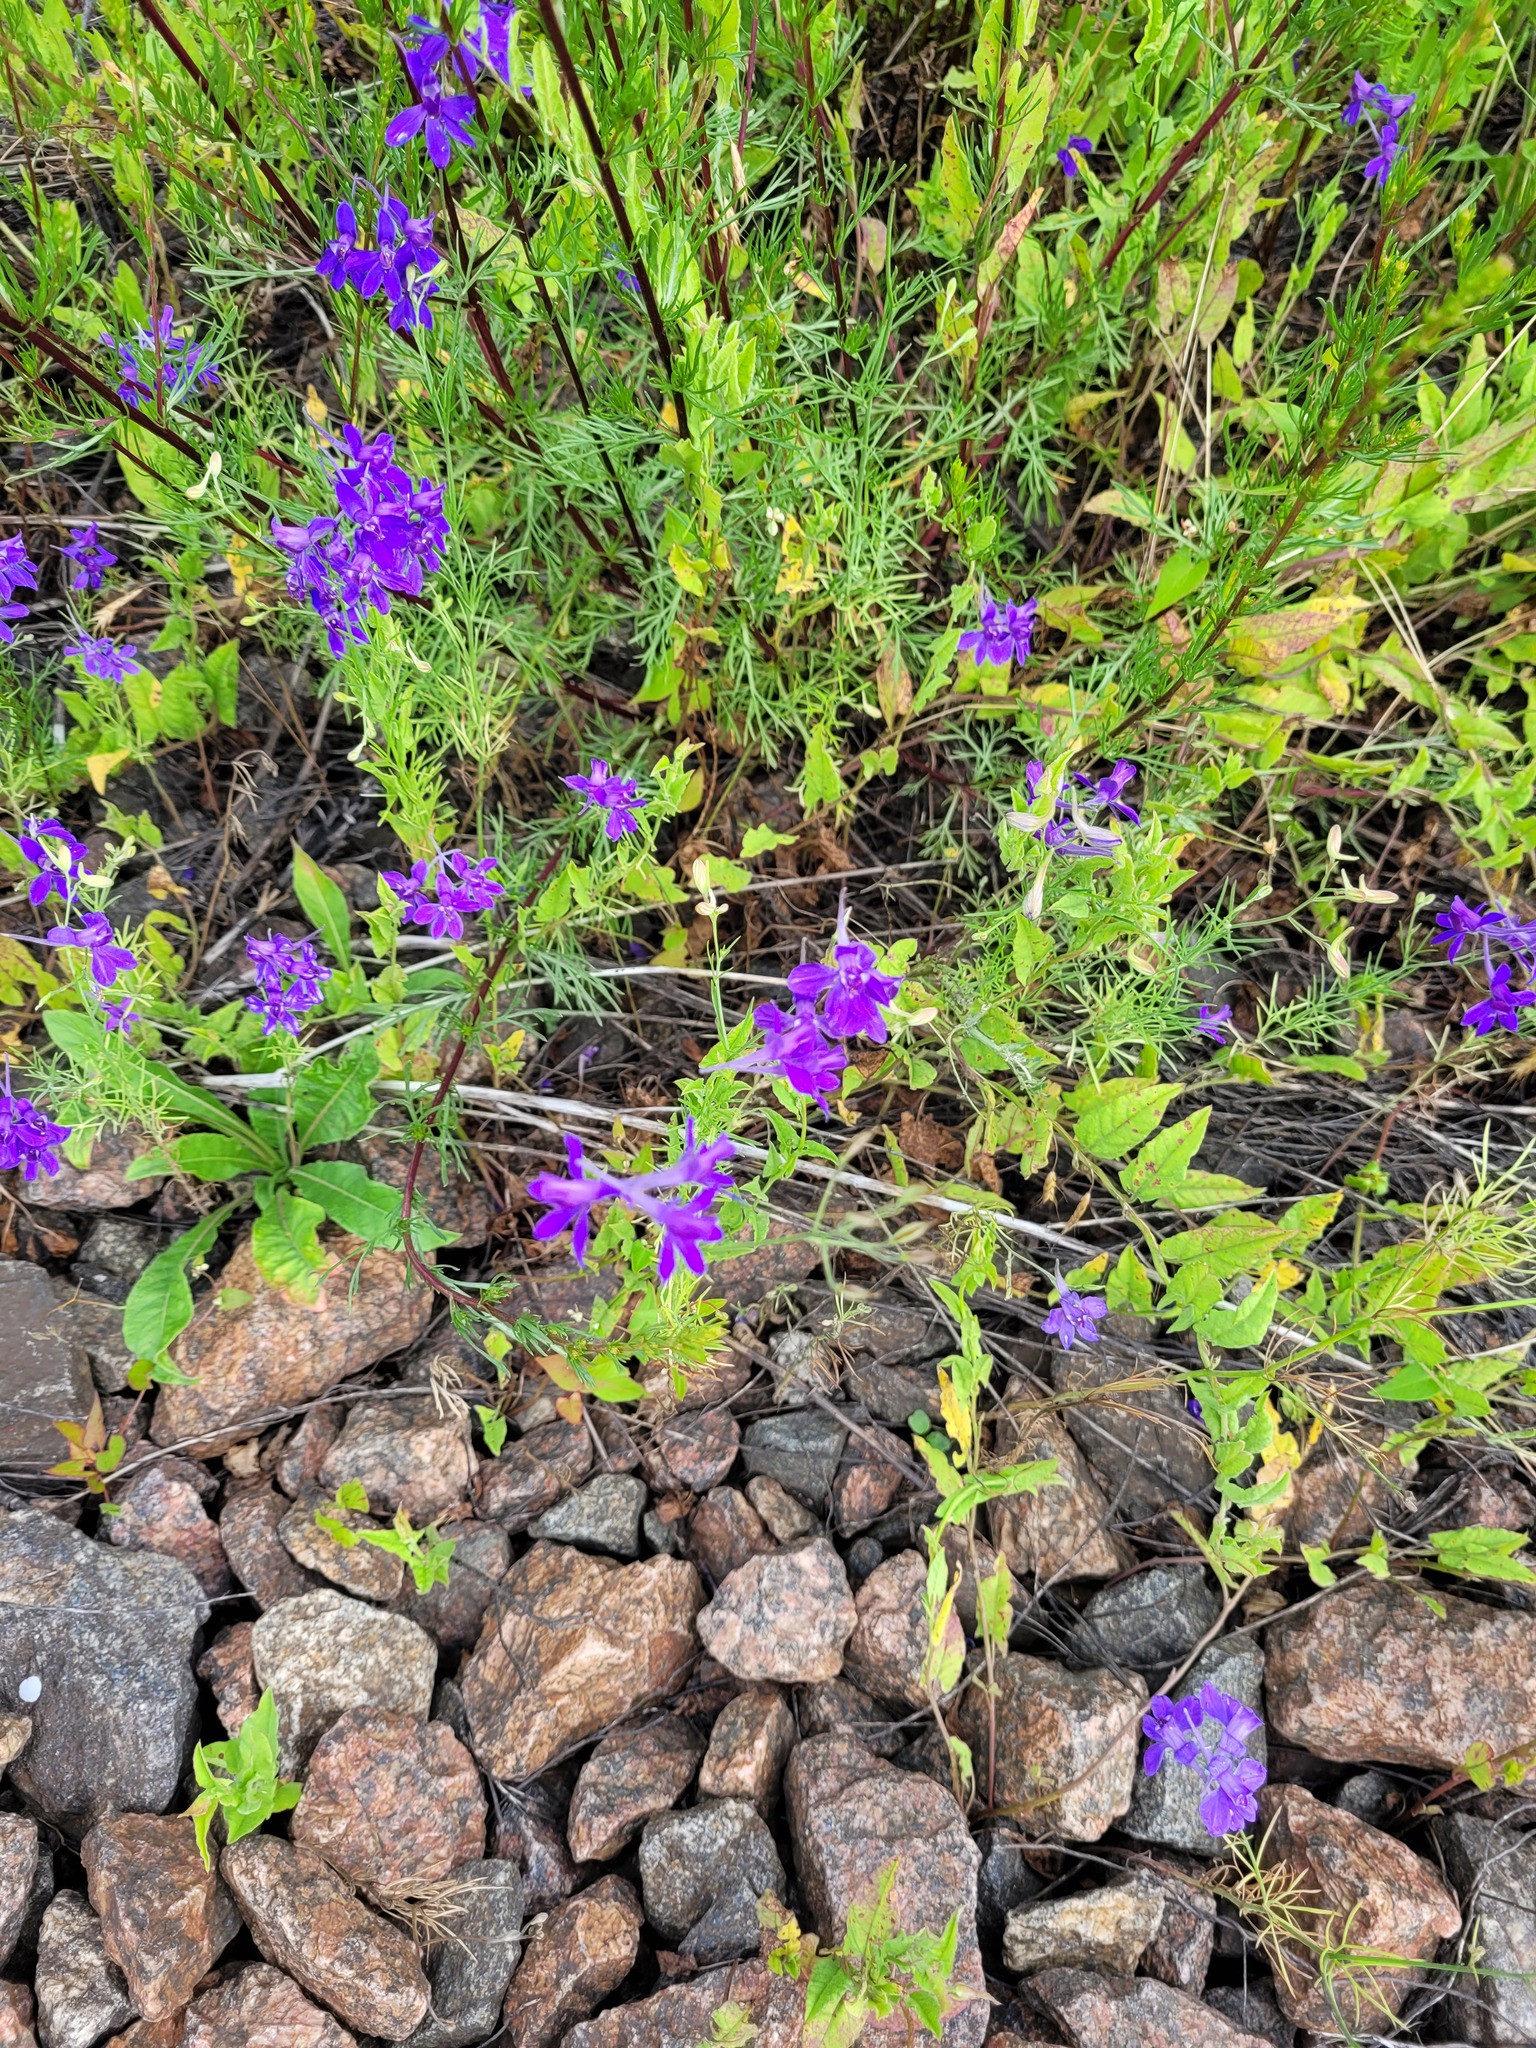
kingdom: Plantae
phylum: Tracheophyta
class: Magnoliopsida
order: Ranunculales
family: Ranunculaceae
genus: Delphinium
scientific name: Delphinium consolida
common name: Branching larkspur
